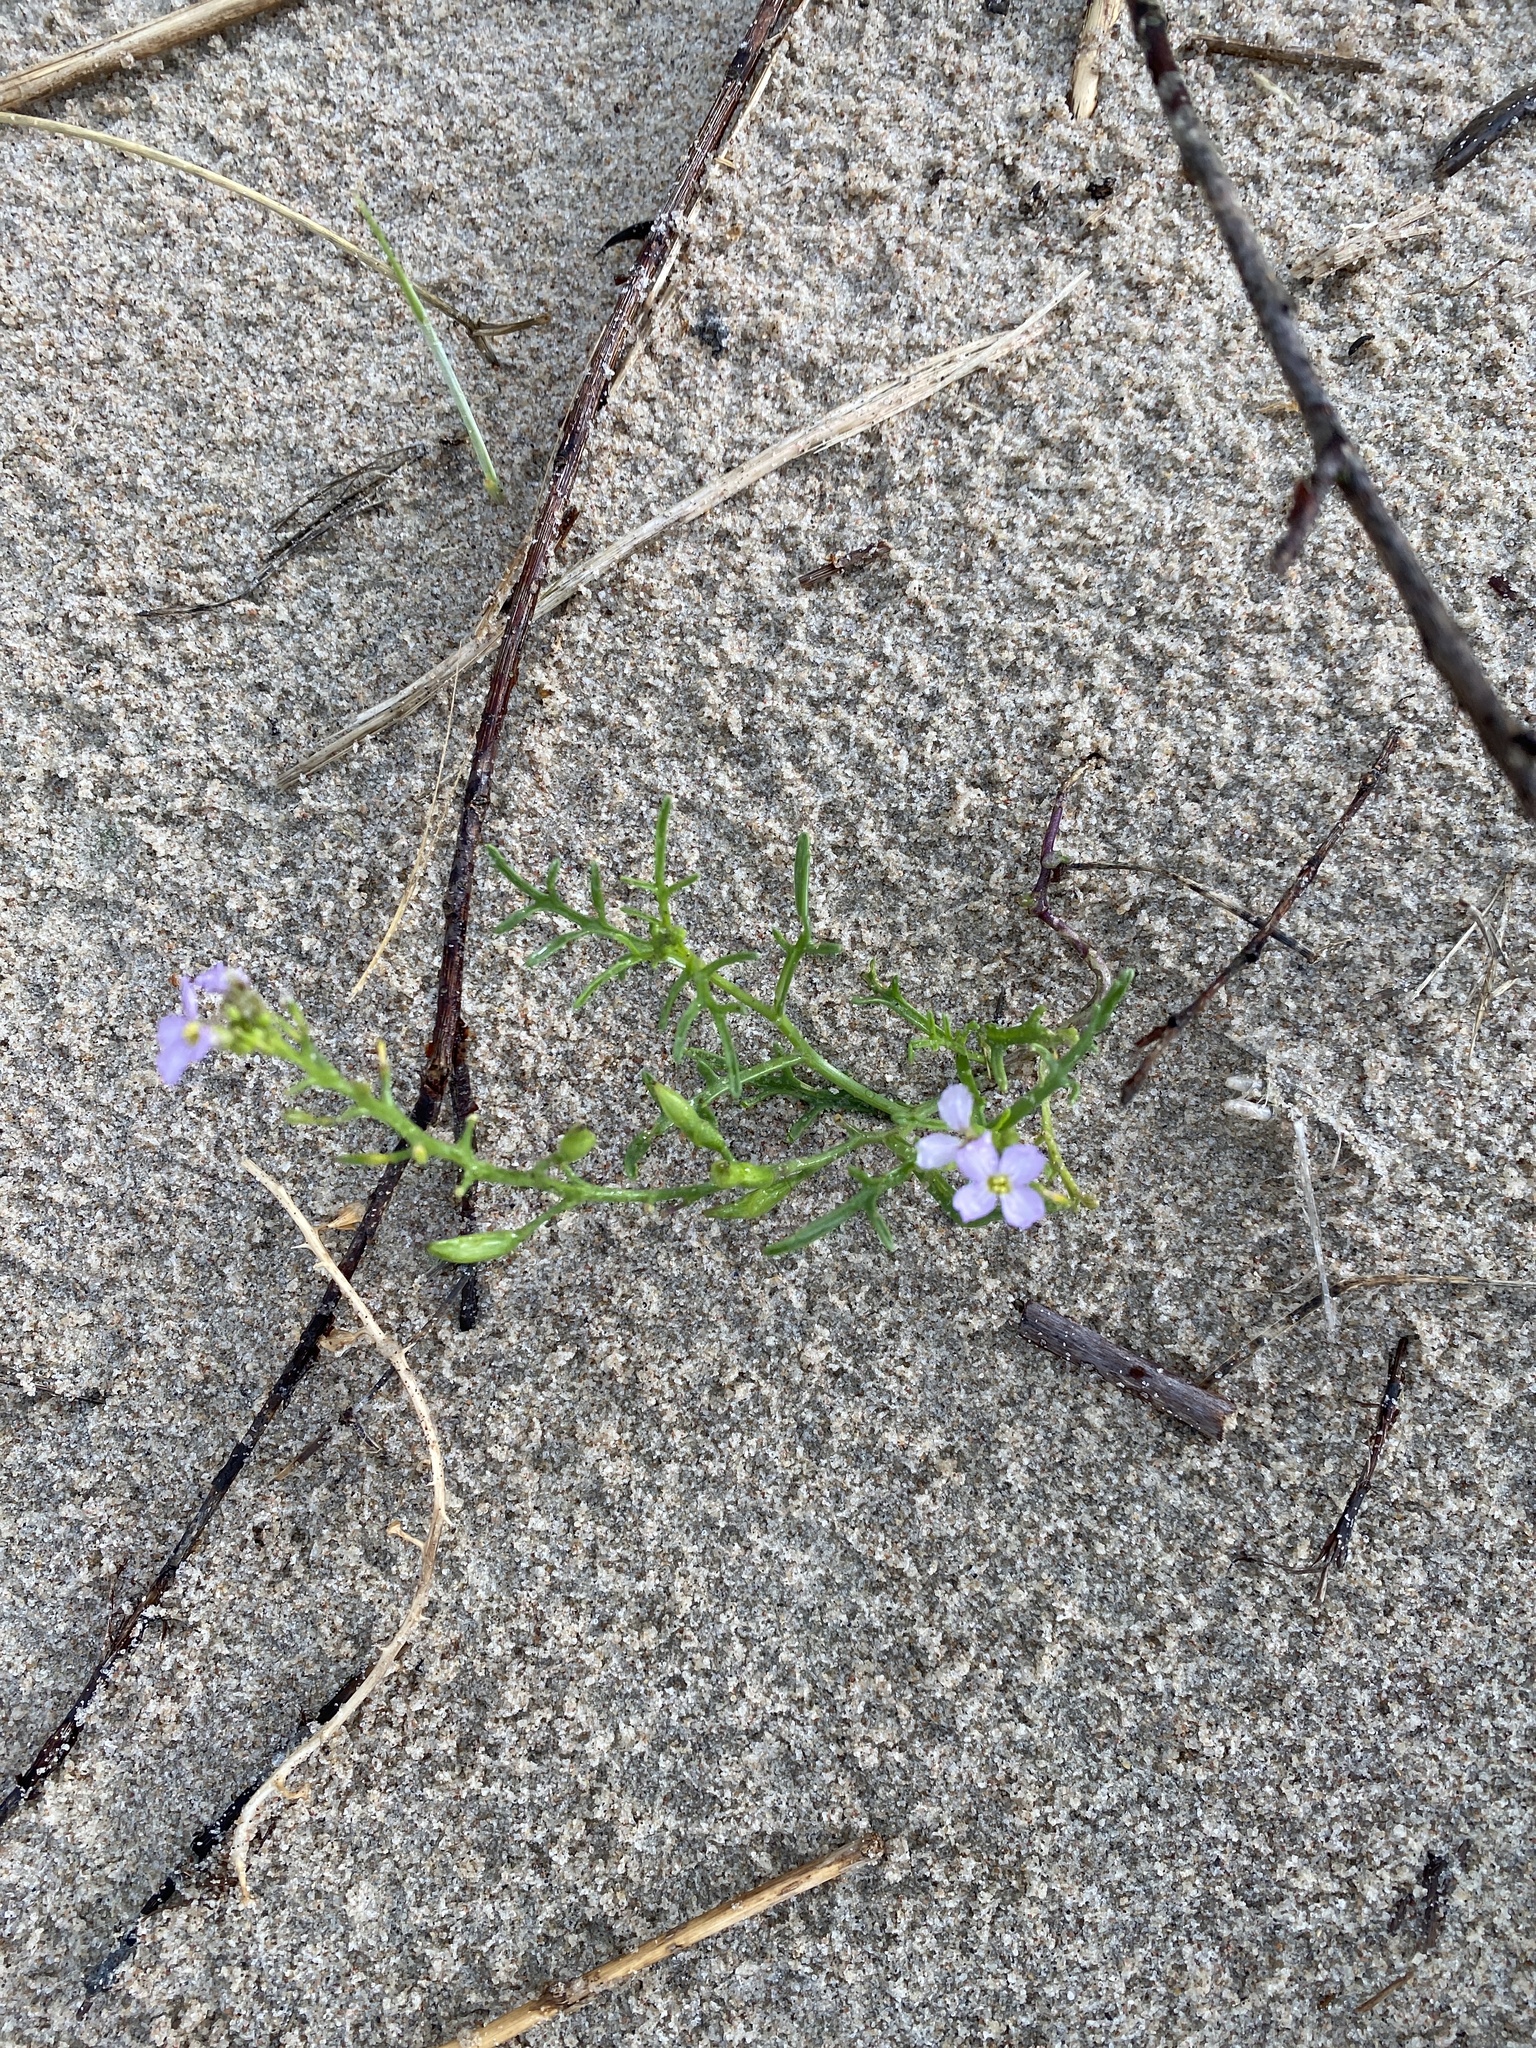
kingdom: Plantae
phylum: Tracheophyta
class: Magnoliopsida
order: Brassicales
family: Brassicaceae
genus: Cakile
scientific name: Cakile maritima
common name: Sea rocket
